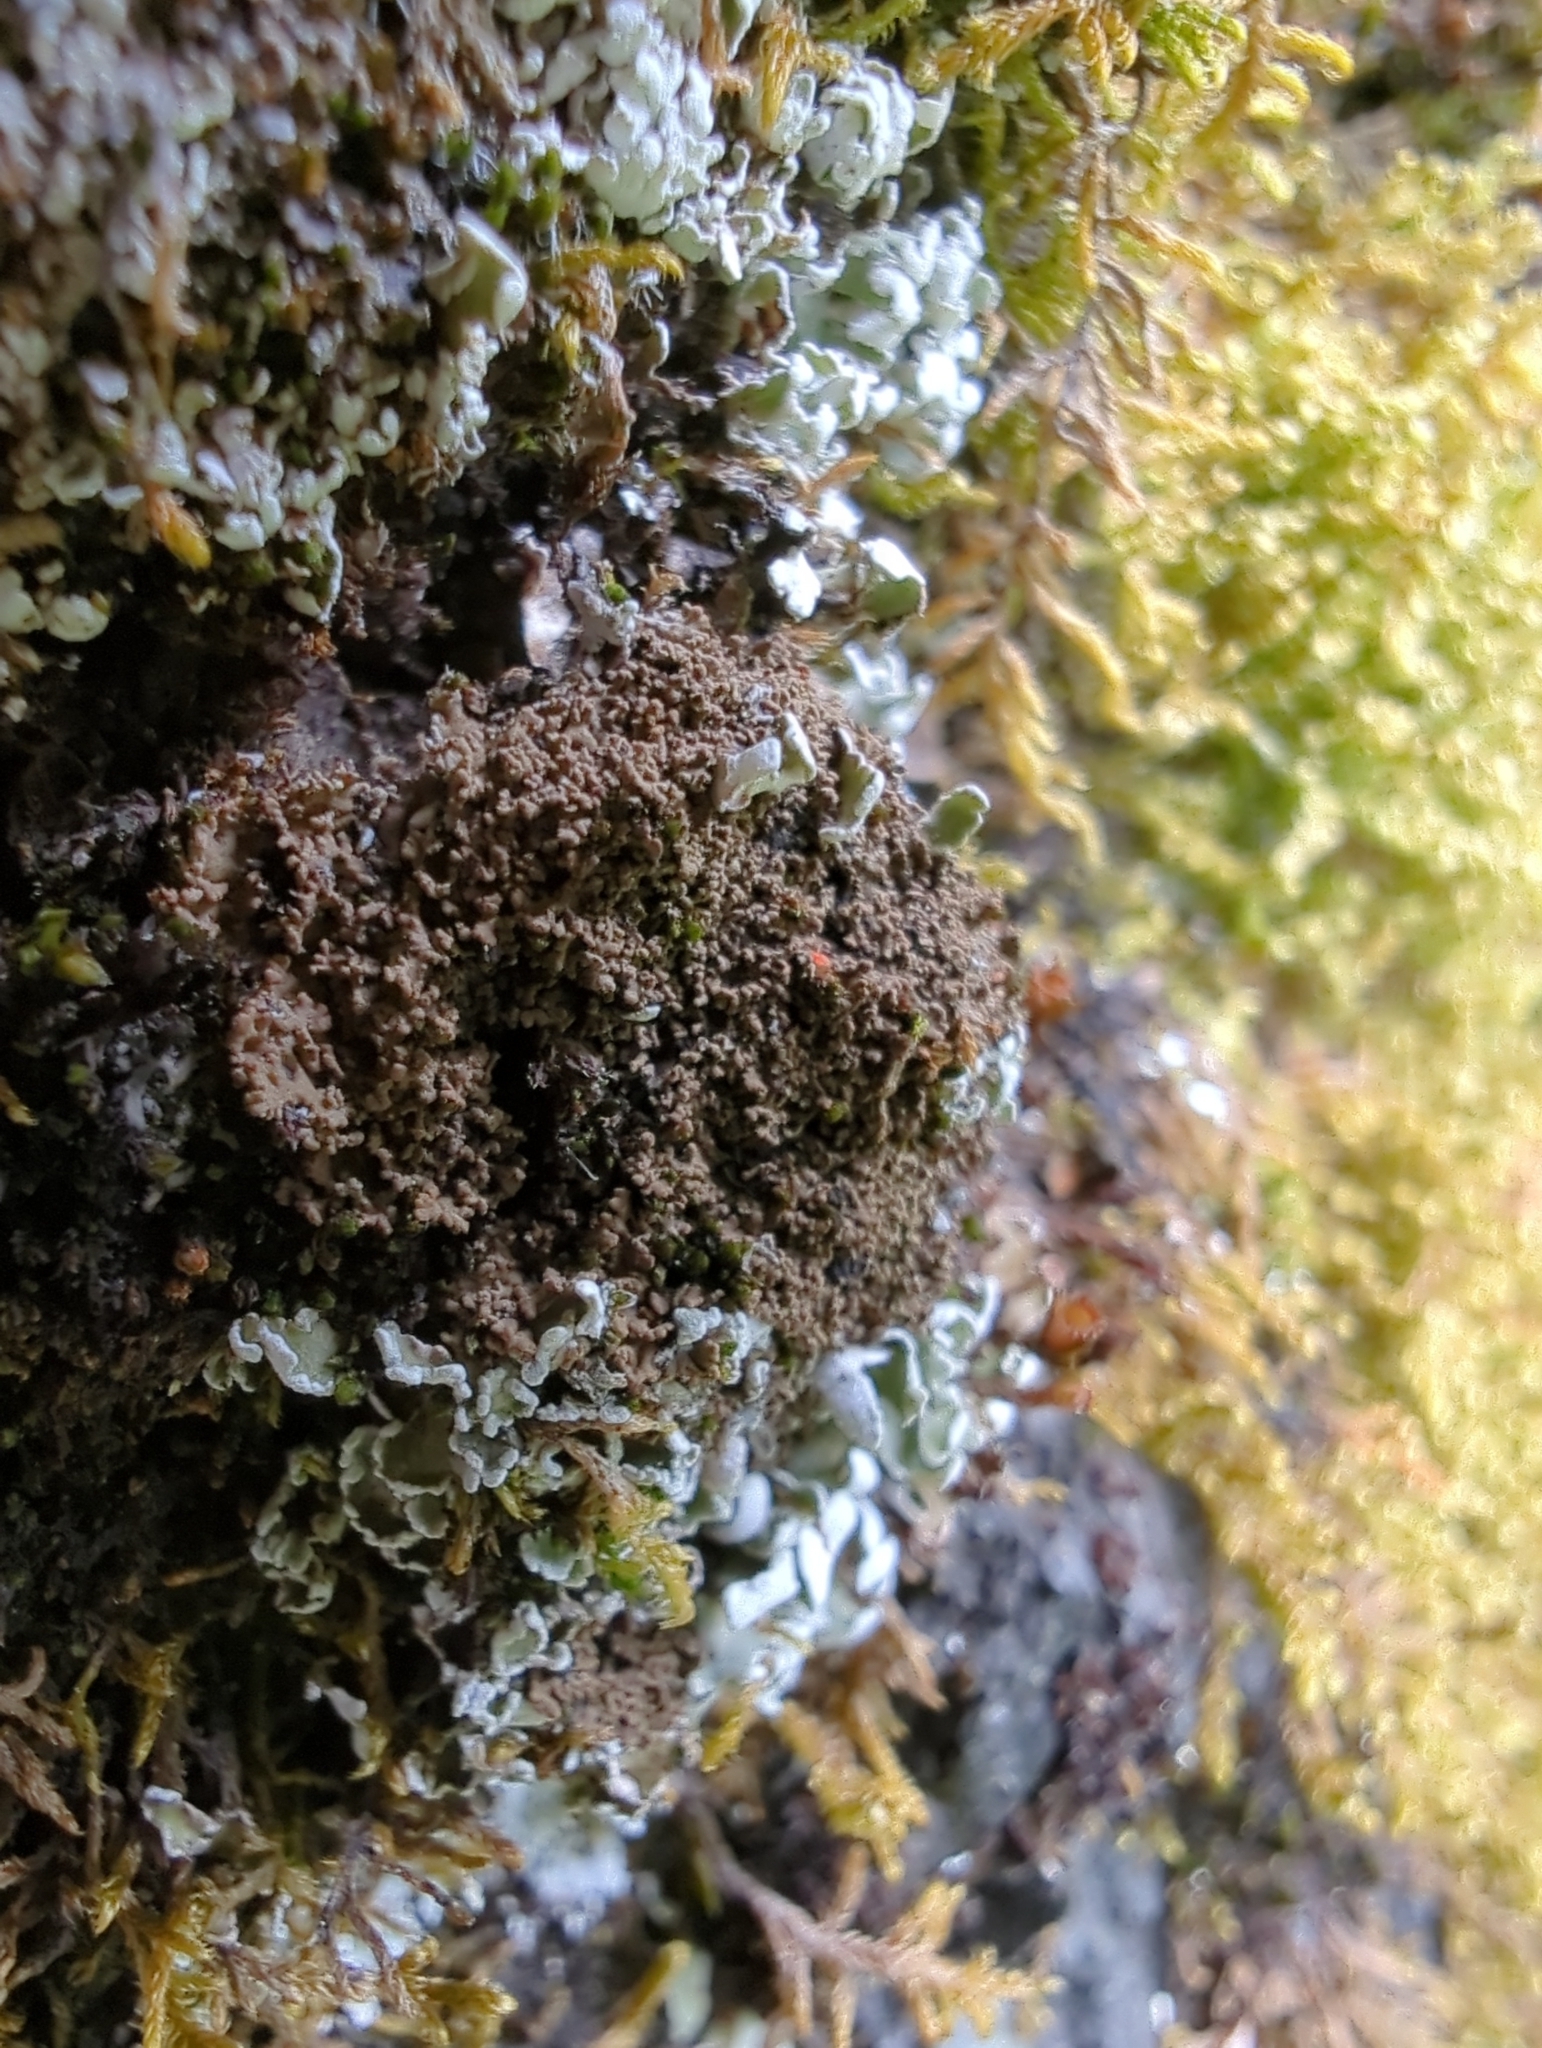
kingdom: Fungi
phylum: Ascomycota
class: Lecanoromycetes
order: Peltigerales
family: Massalongiaceae
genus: Massalongia
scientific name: Massalongia carnosa
